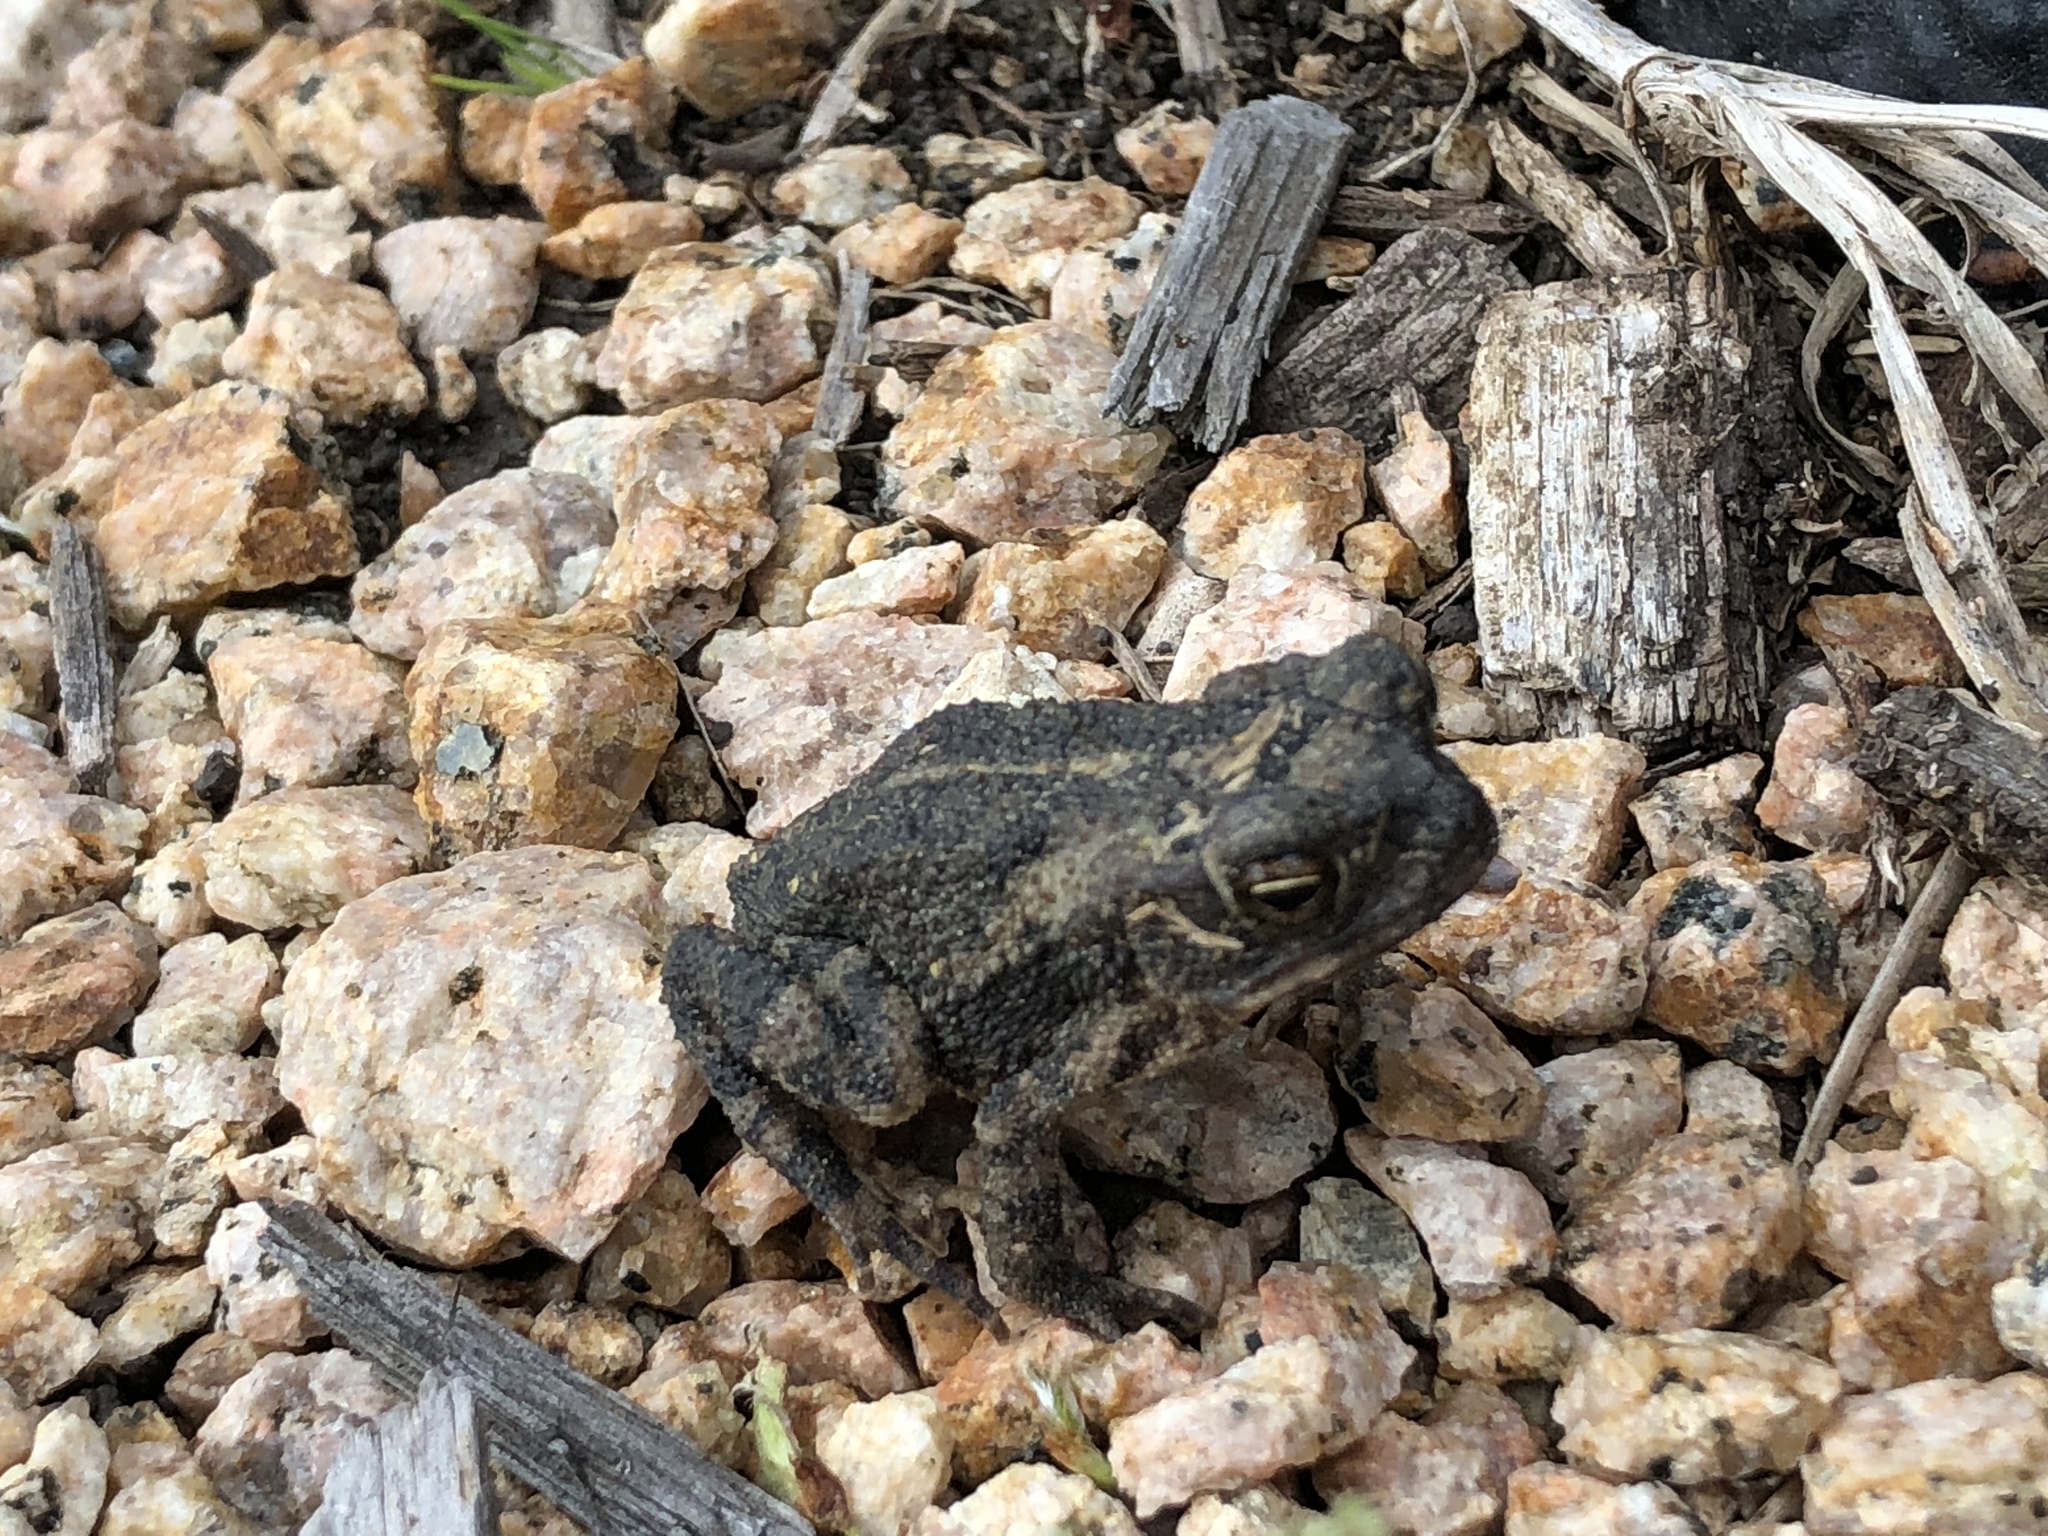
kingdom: Animalia
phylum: Chordata
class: Amphibia
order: Anura
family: Bufonidae
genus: Incilius
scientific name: Incilius nebulifer
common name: Gulf coast toad
